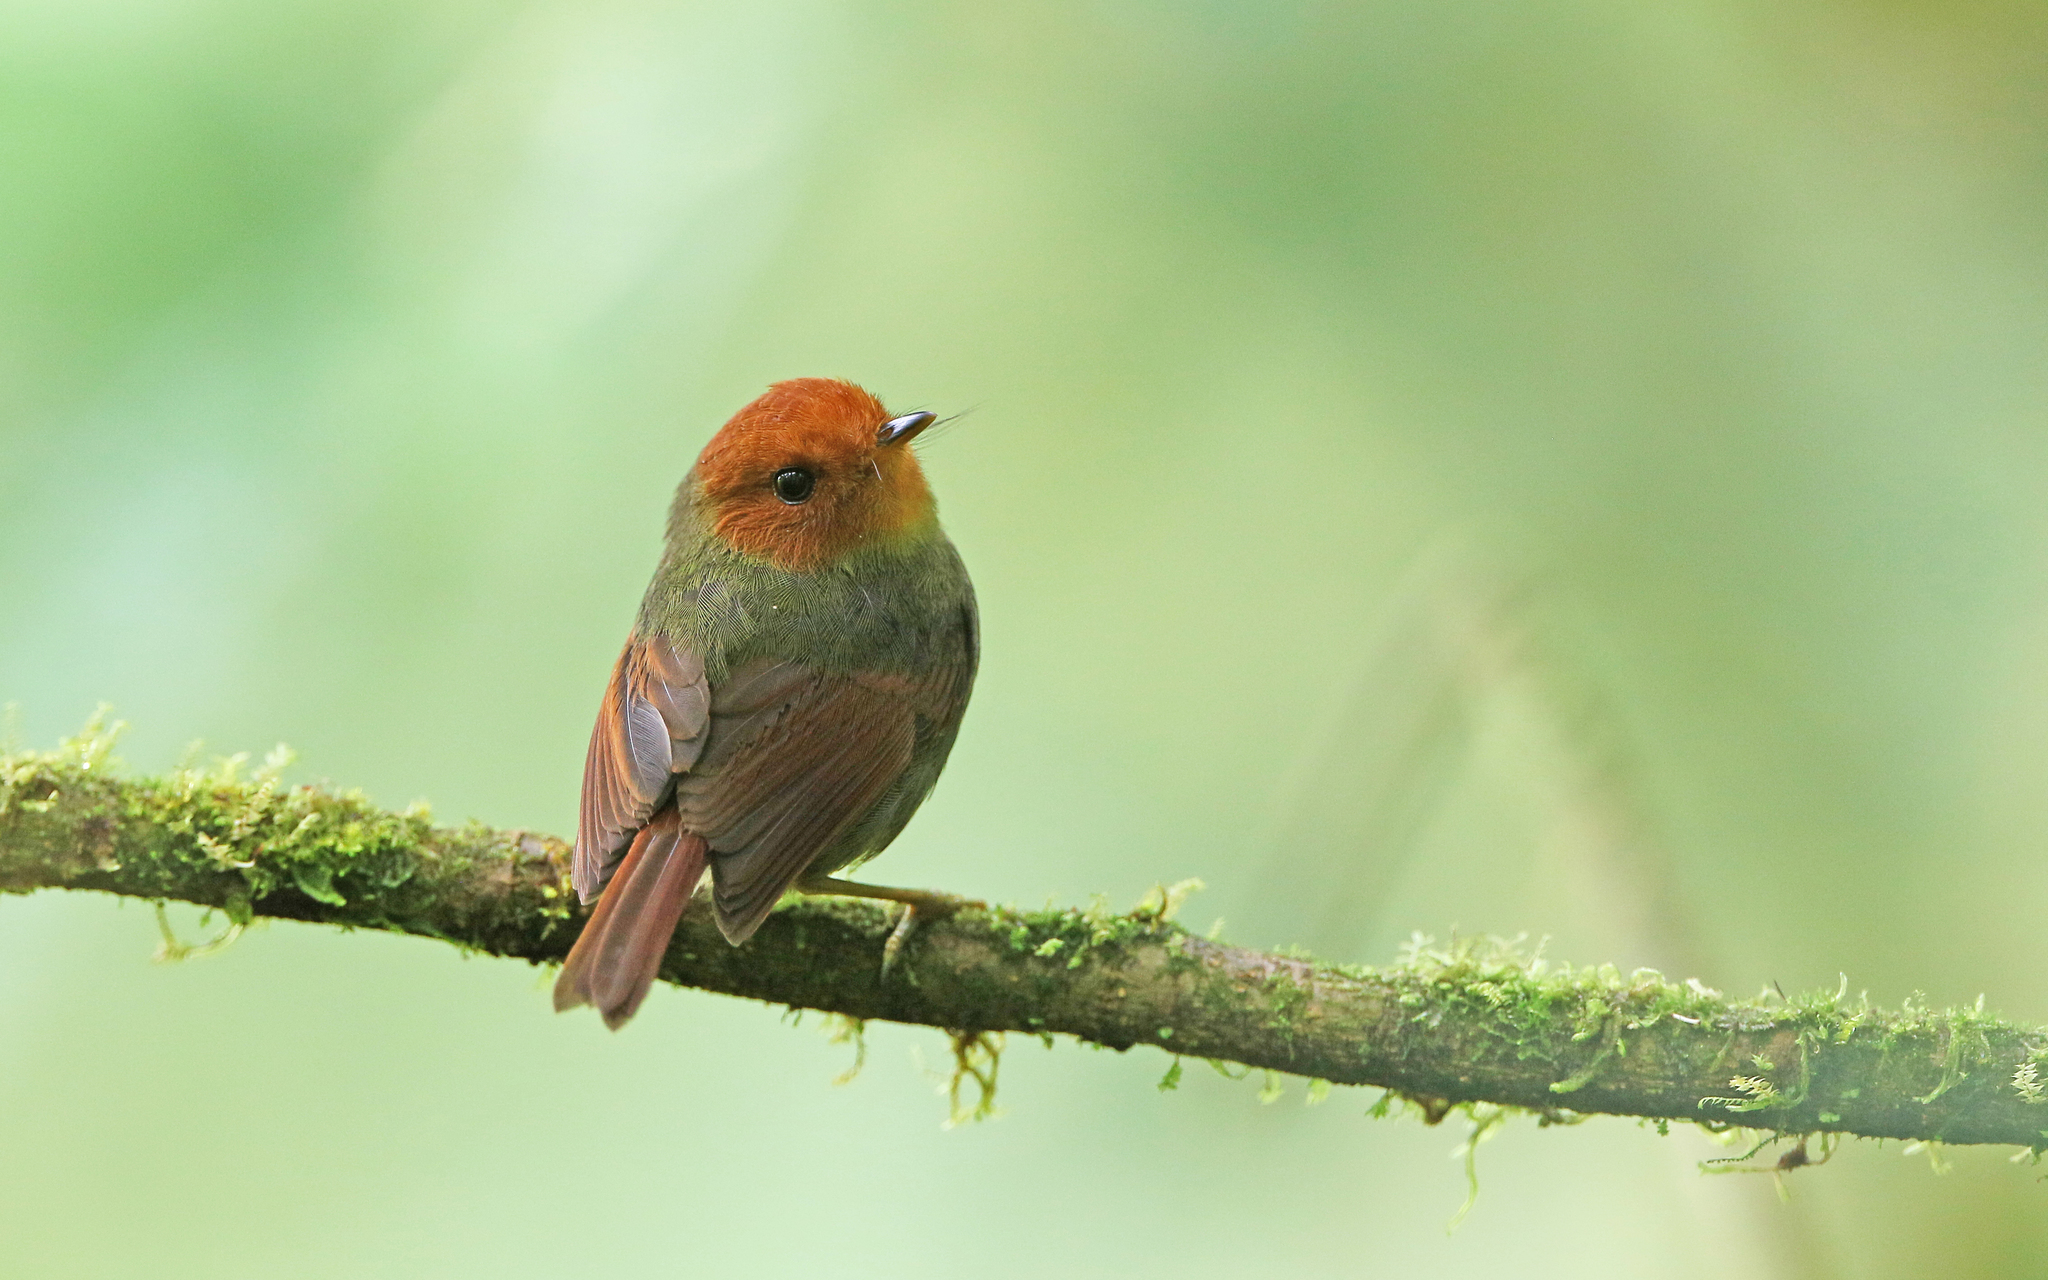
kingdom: Animalia
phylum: Chordata
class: Aves
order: Passeriformes
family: Tyrannidae
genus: Pseudotriccus
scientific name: Pseudotriccus ruficeps
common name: Rufous-headed pygmy tyrant
